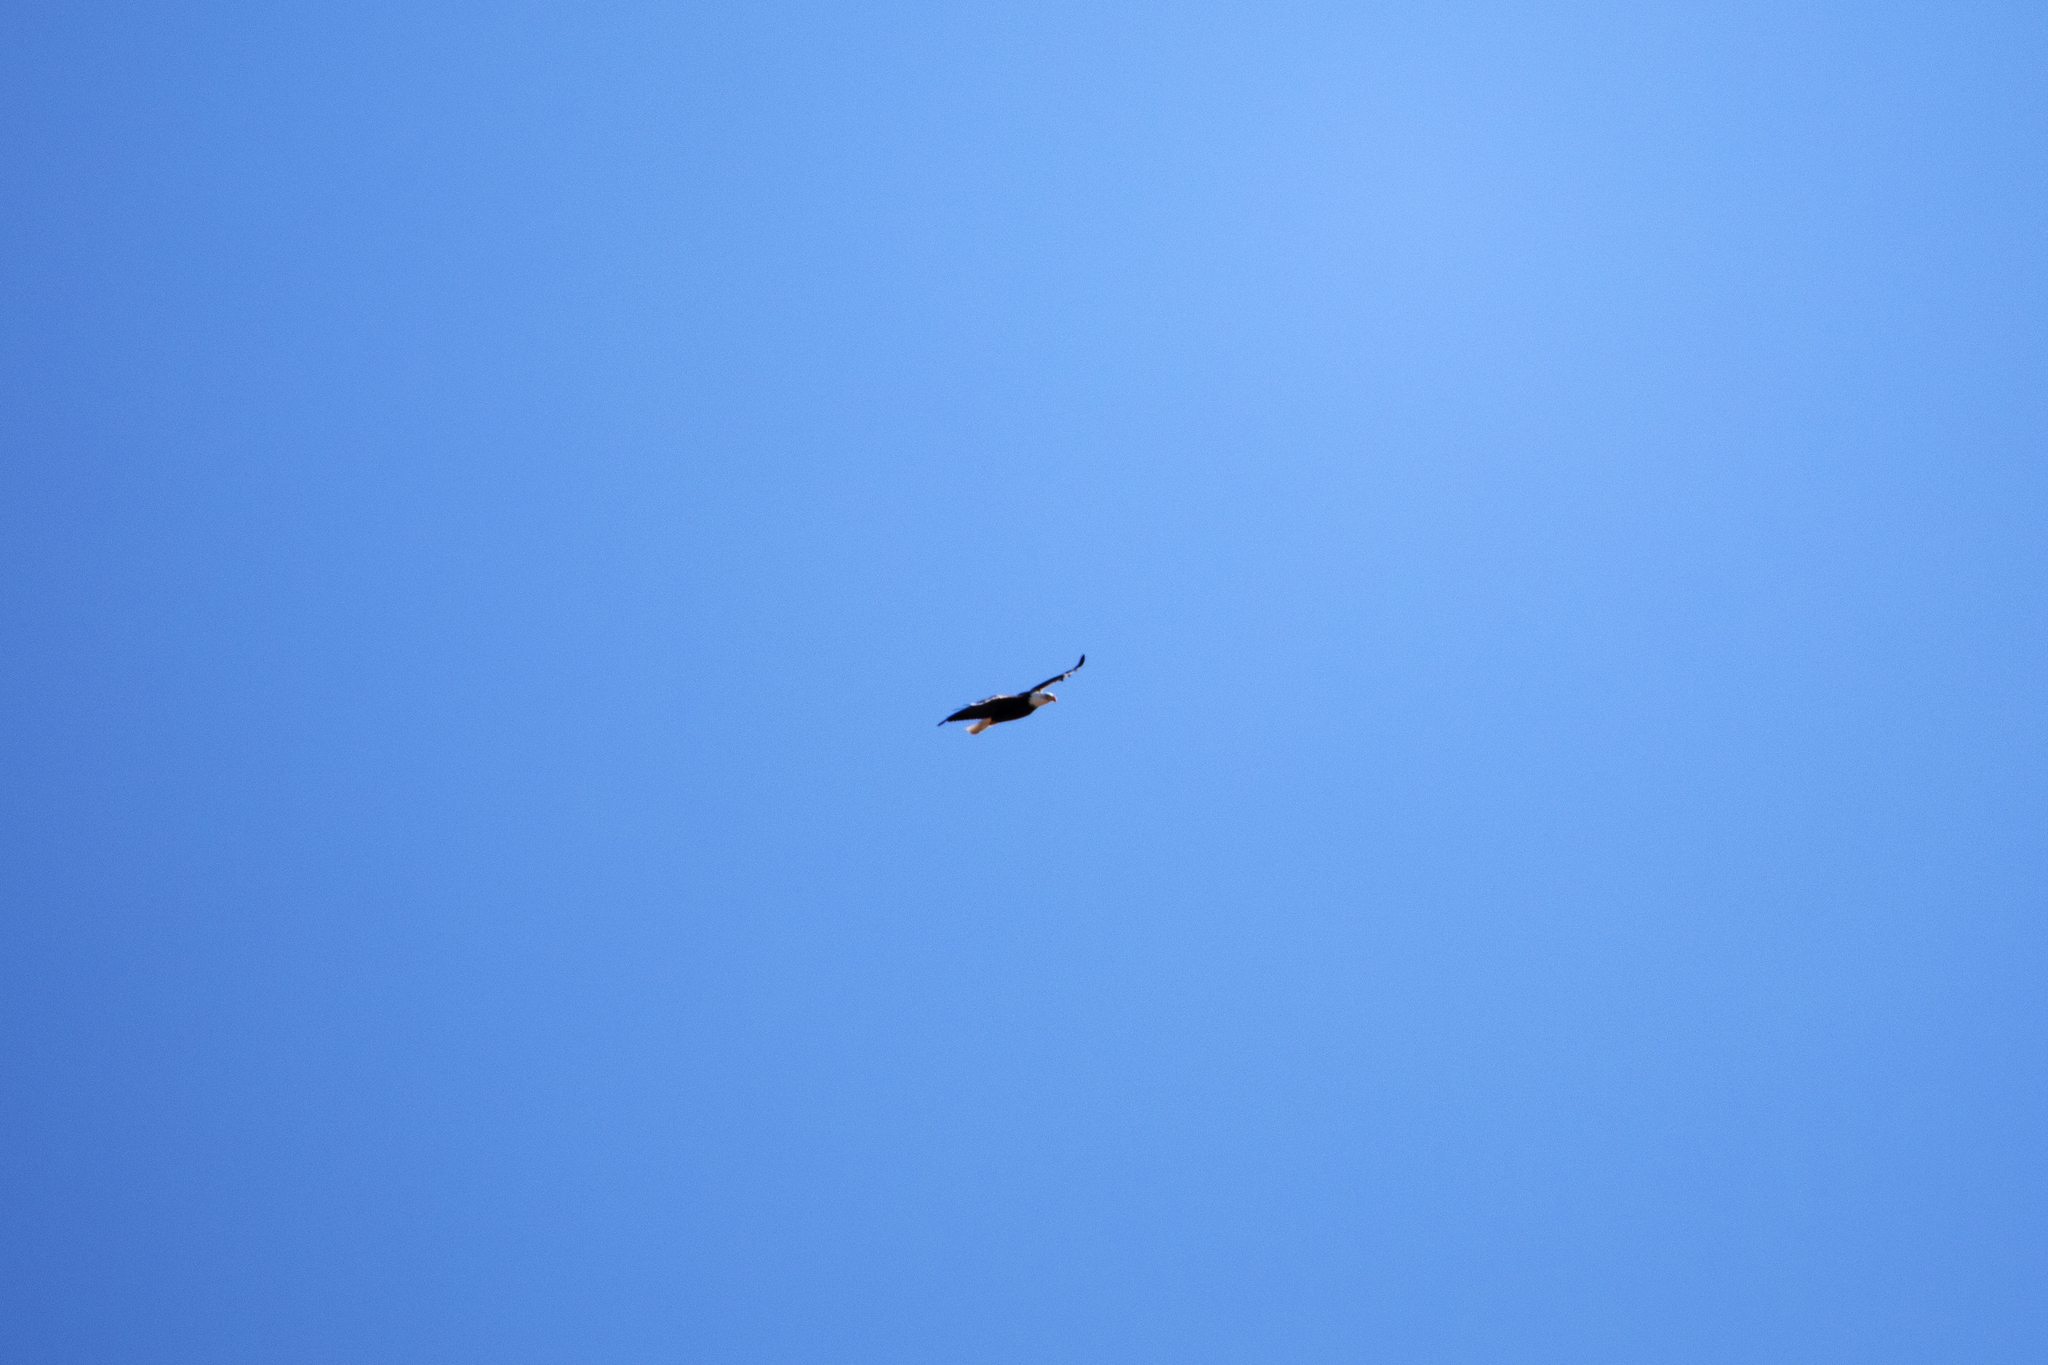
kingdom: Animalia
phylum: Chordata
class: Aves
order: Accipitriformes
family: Accipitridae
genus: Haliaeetus
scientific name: Haliaeetus leucocephalus
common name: Bald eagle
